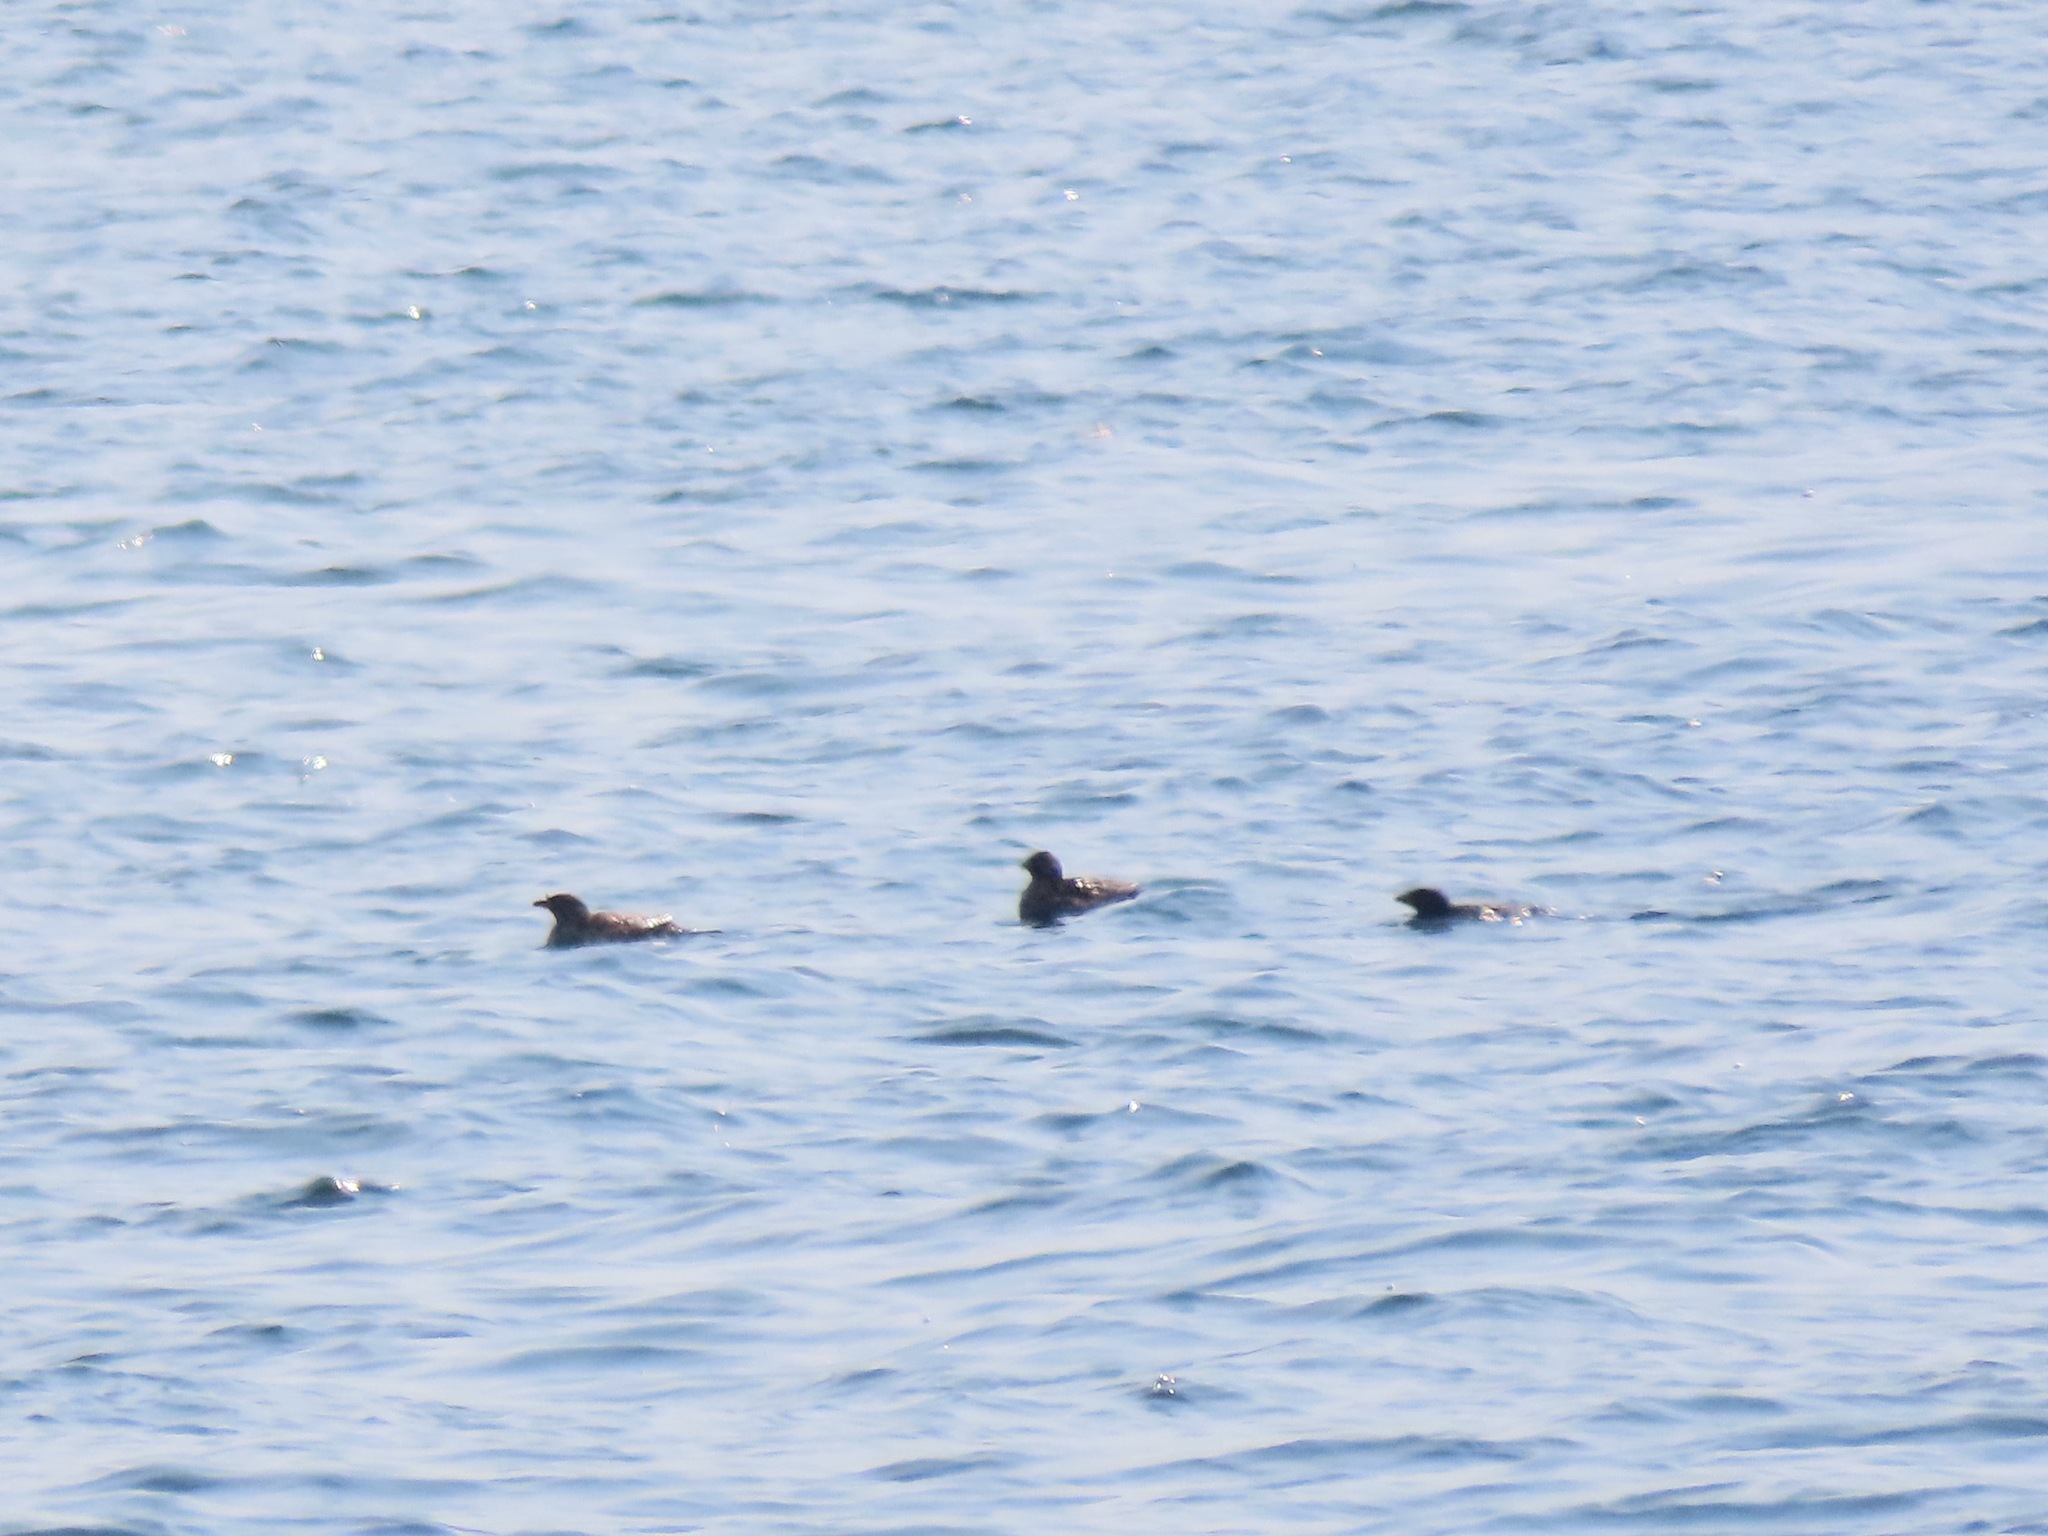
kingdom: Animalia
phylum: Chordata
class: Aves
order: Charadriiformes
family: Alcidae
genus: Cerorhinca
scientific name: Cerorhinca monocerata
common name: Rhinoceros auklet
